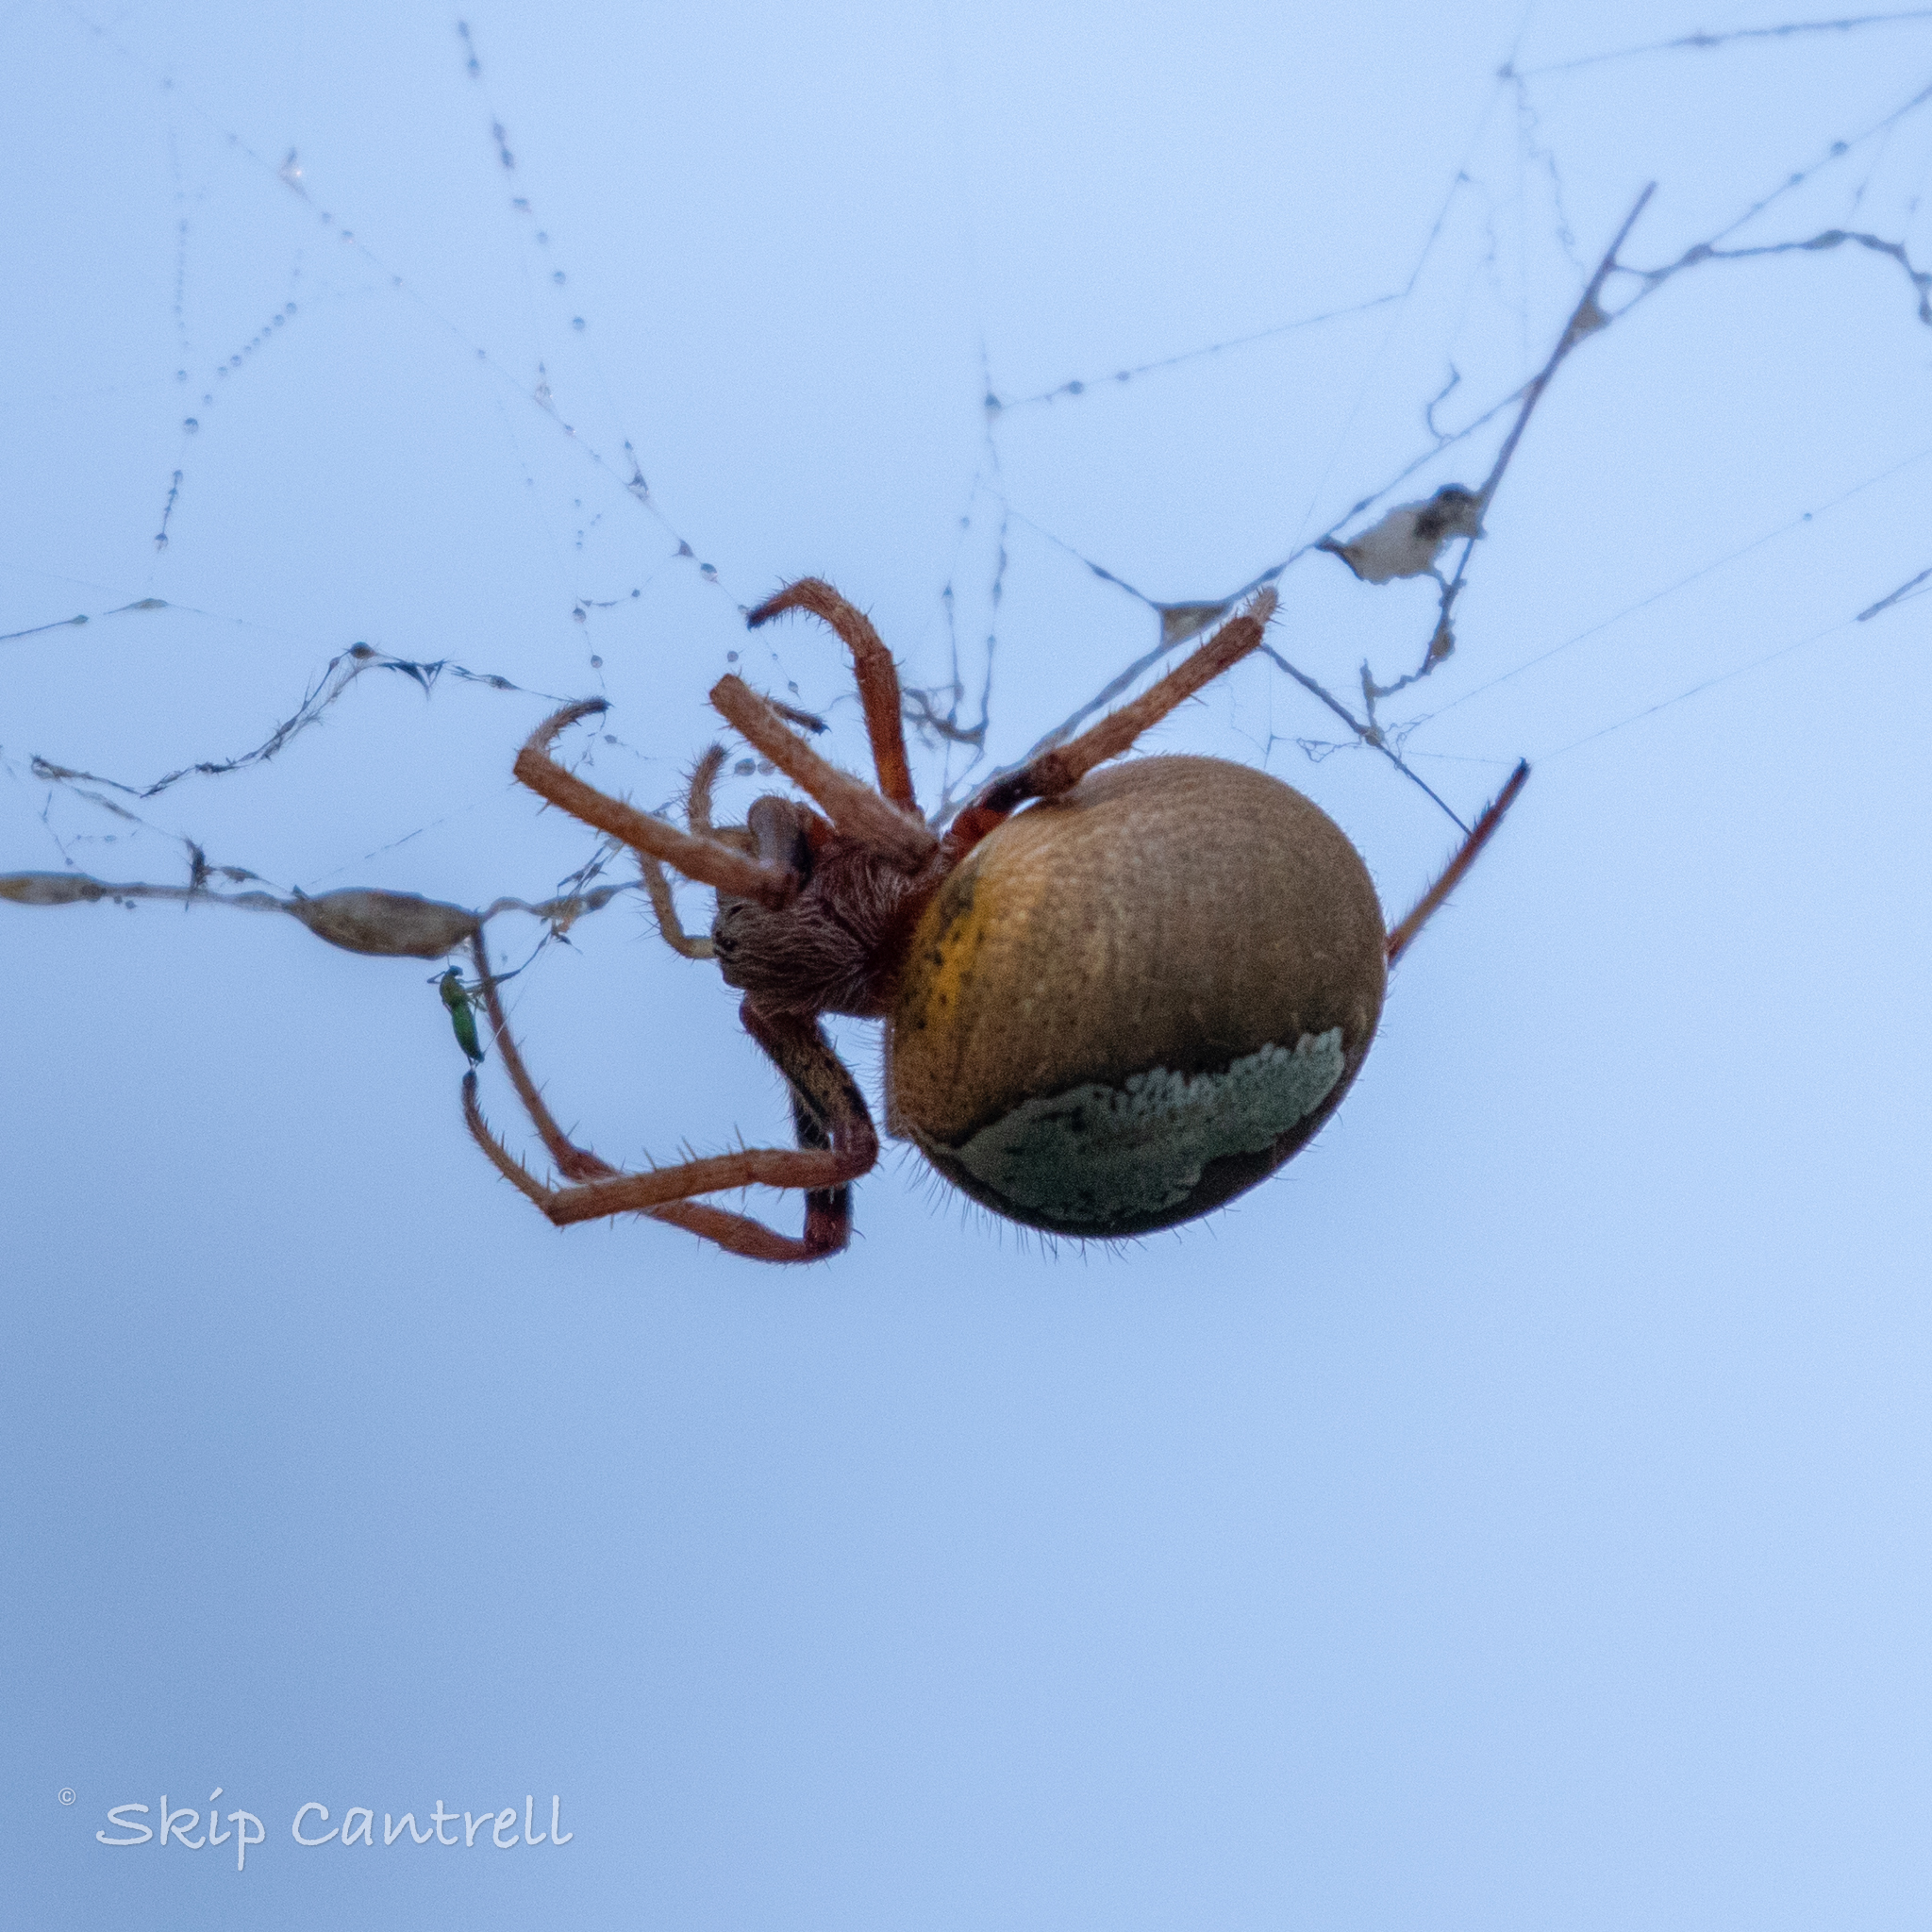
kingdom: Animalia
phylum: Arthropoda
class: Arachnida
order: Araneae
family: Araneidae
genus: Eriophora
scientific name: Eriophora ravilla
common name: Orb weavers
